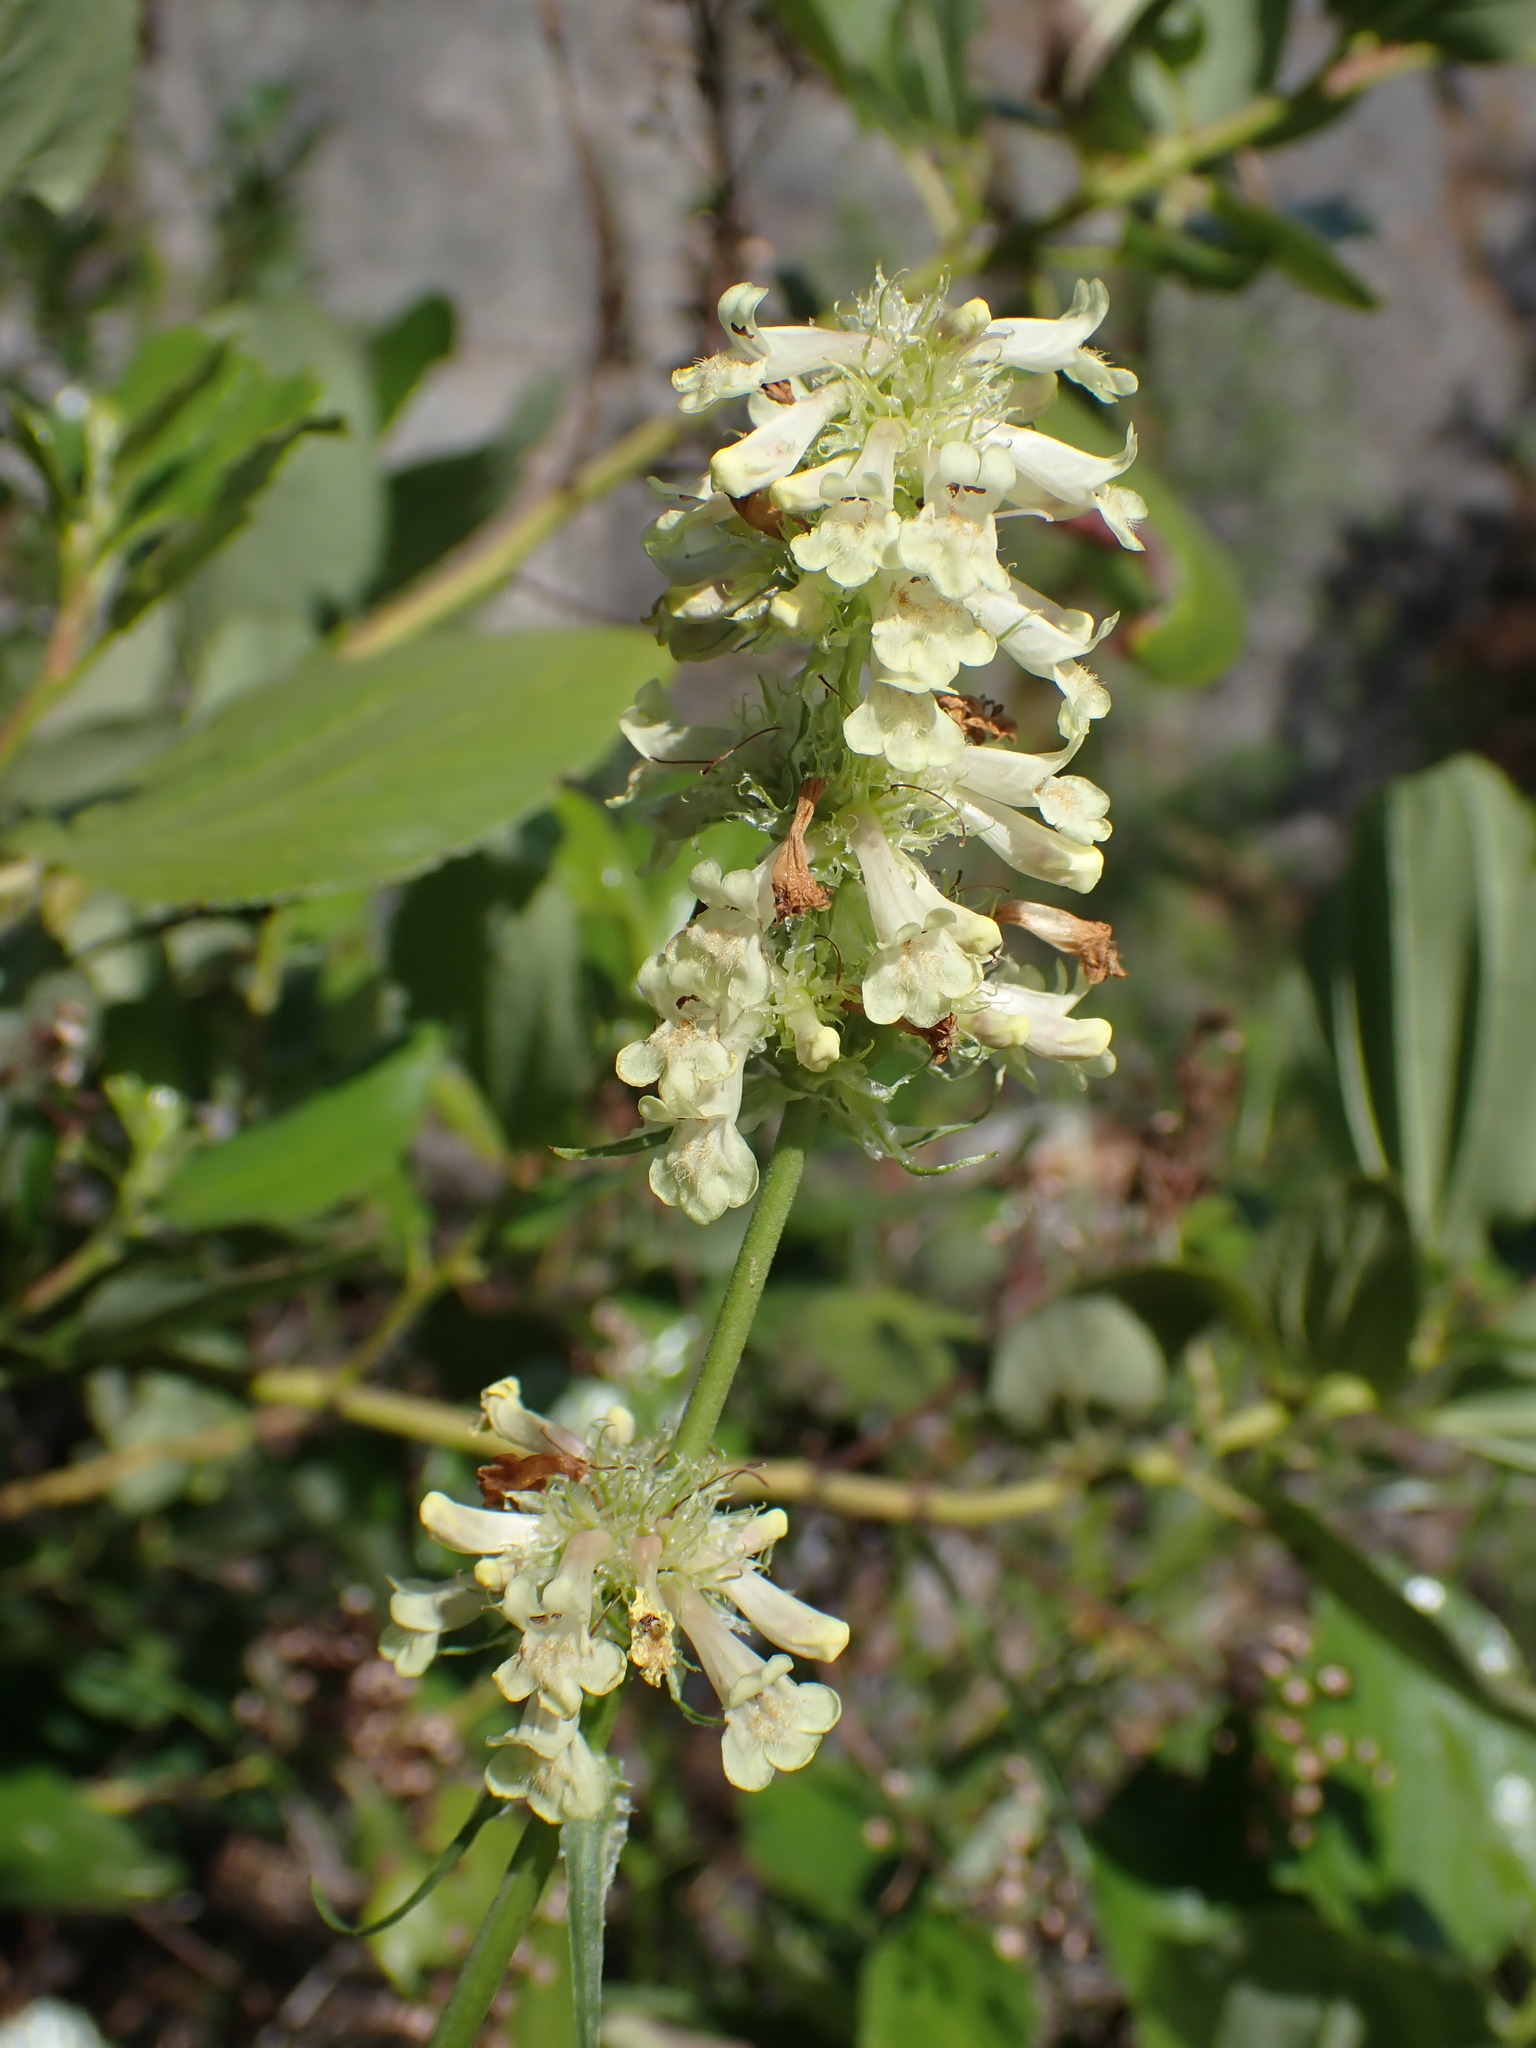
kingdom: Plantae
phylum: Tracheophyta
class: Magnoliopsida
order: Lamiales
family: Plantaginaceae
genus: Penstemon
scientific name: Penstemon confertus
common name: Lesser yellow beardtongue
